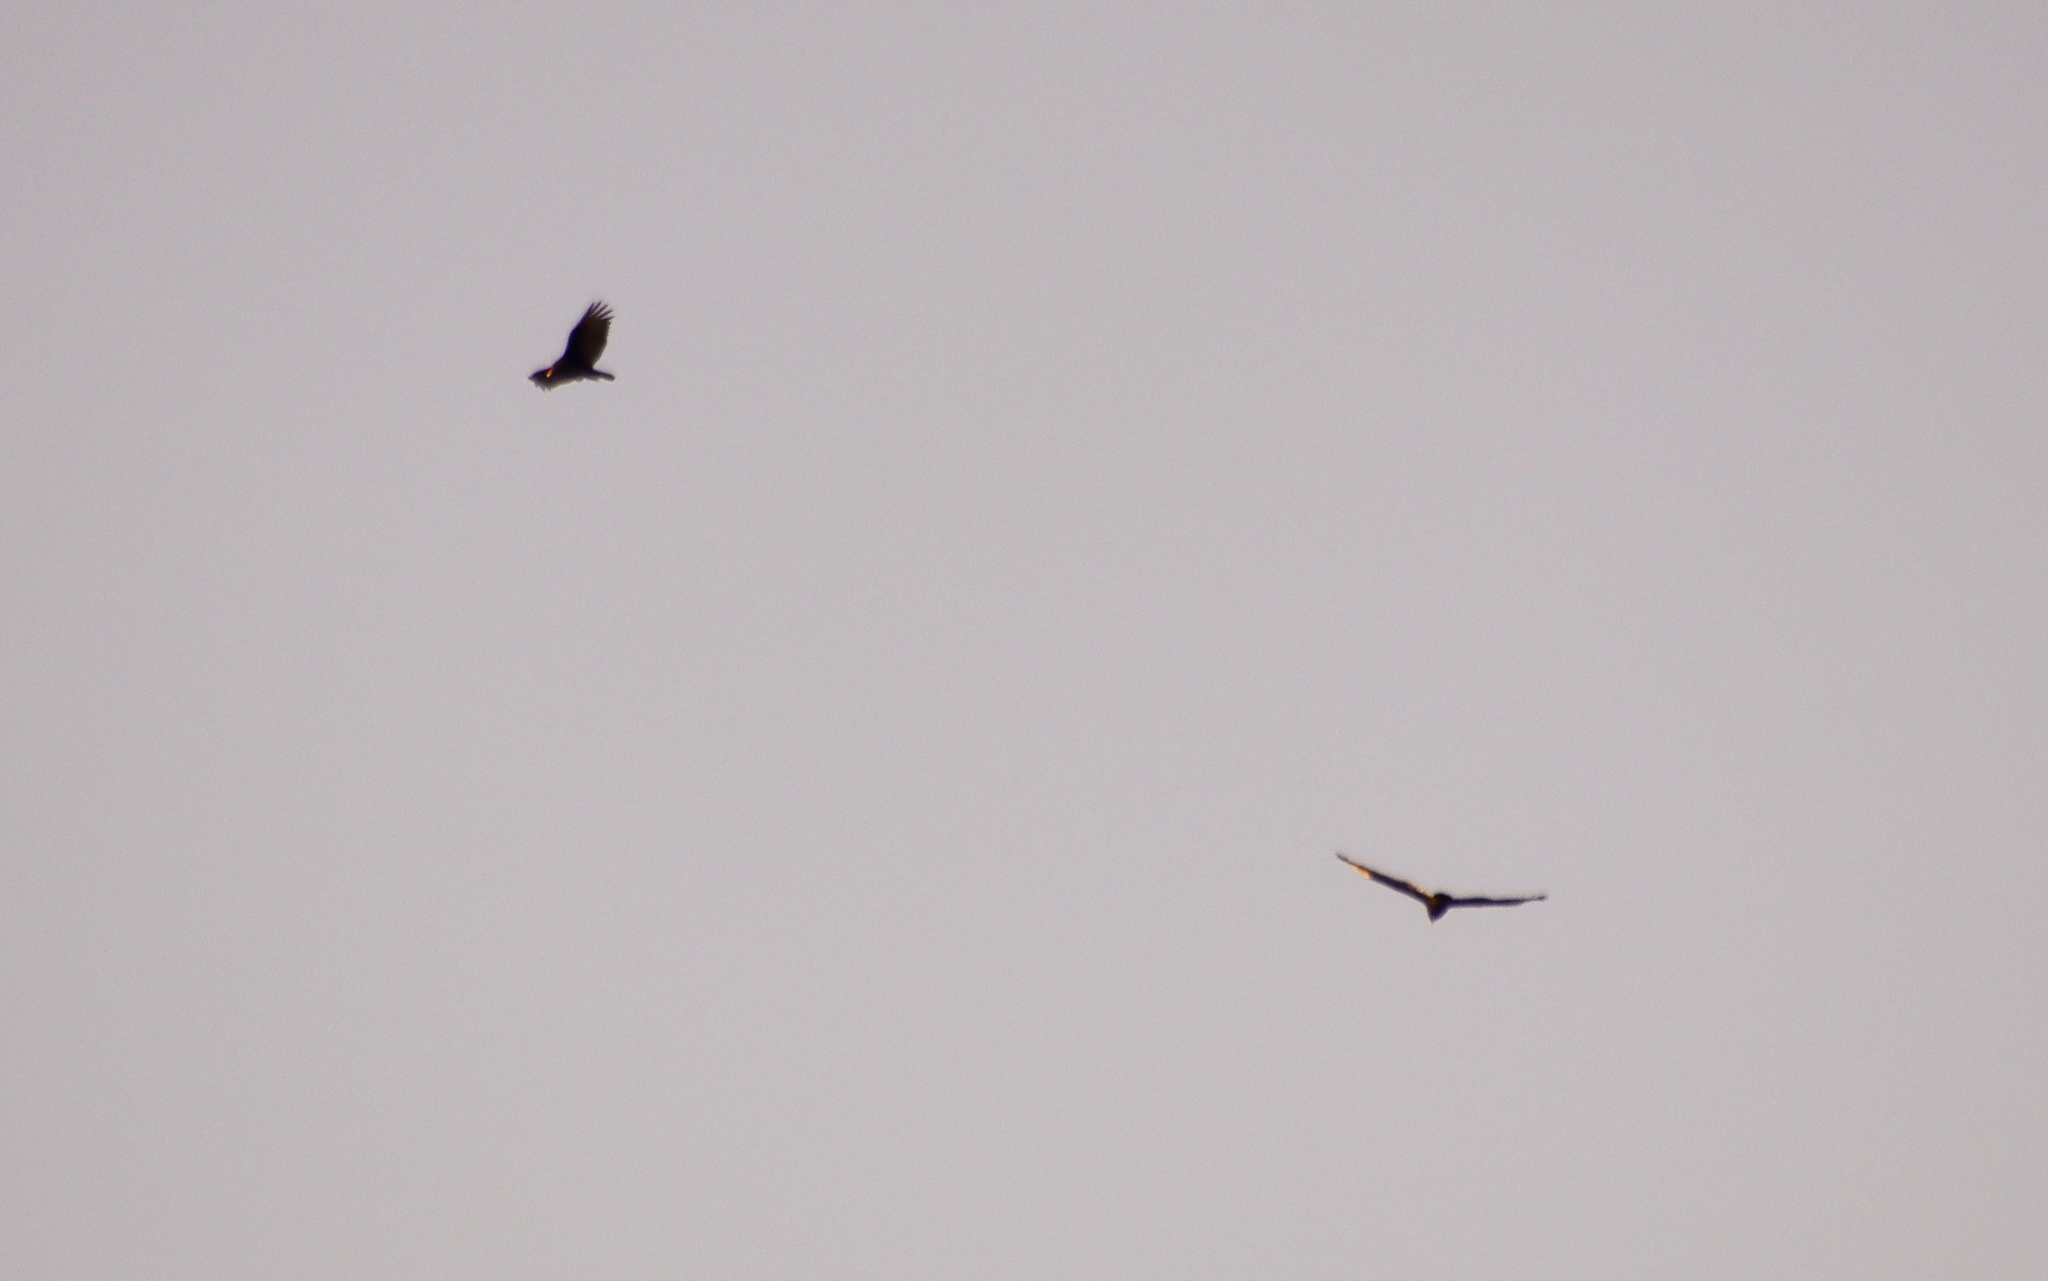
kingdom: Animalia
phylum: Chordata
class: Aves
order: Accipitriformes
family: Cathartidae
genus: Cathartes
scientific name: Cathartes aura
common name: Turkey vulture
